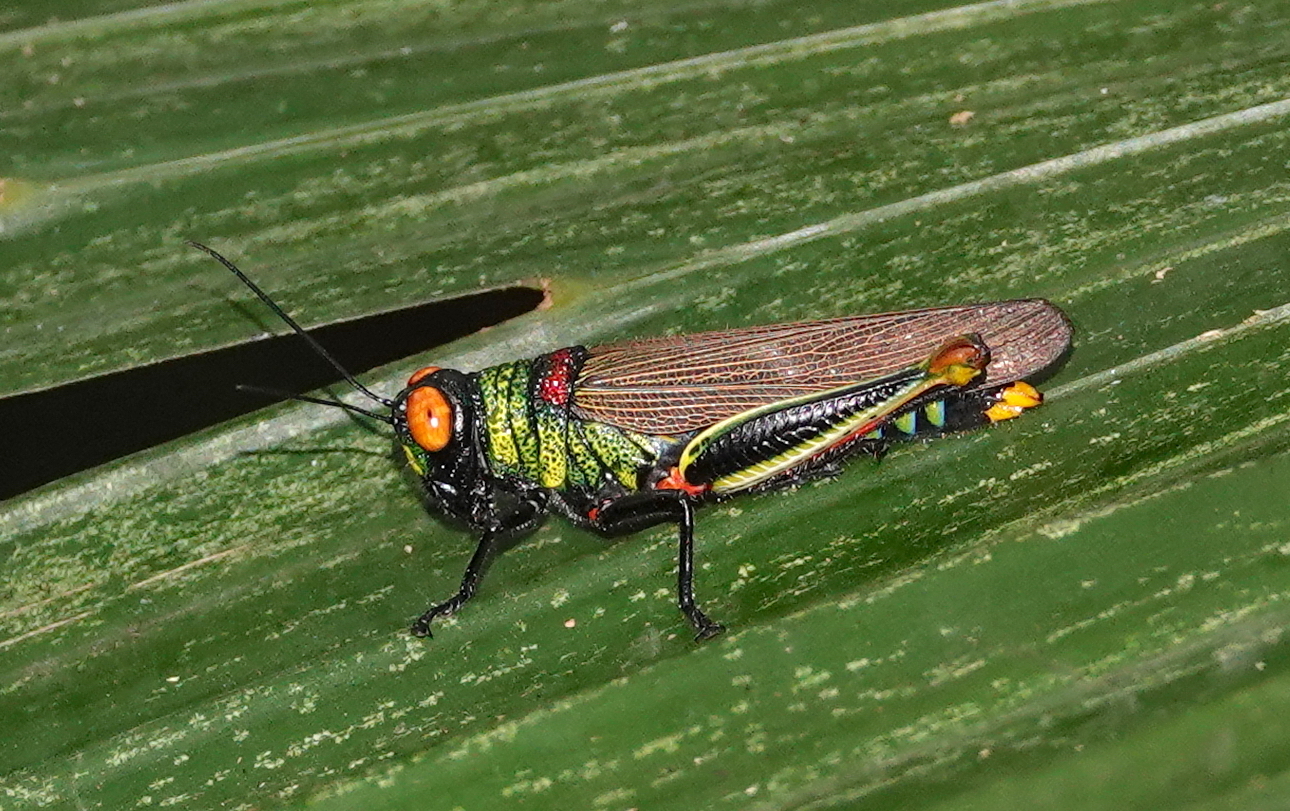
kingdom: Animalia
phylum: Arthropoda
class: Insecta
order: Orthoptera
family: Acrididae
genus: Coscineuta
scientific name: Coscineuta trochilus
